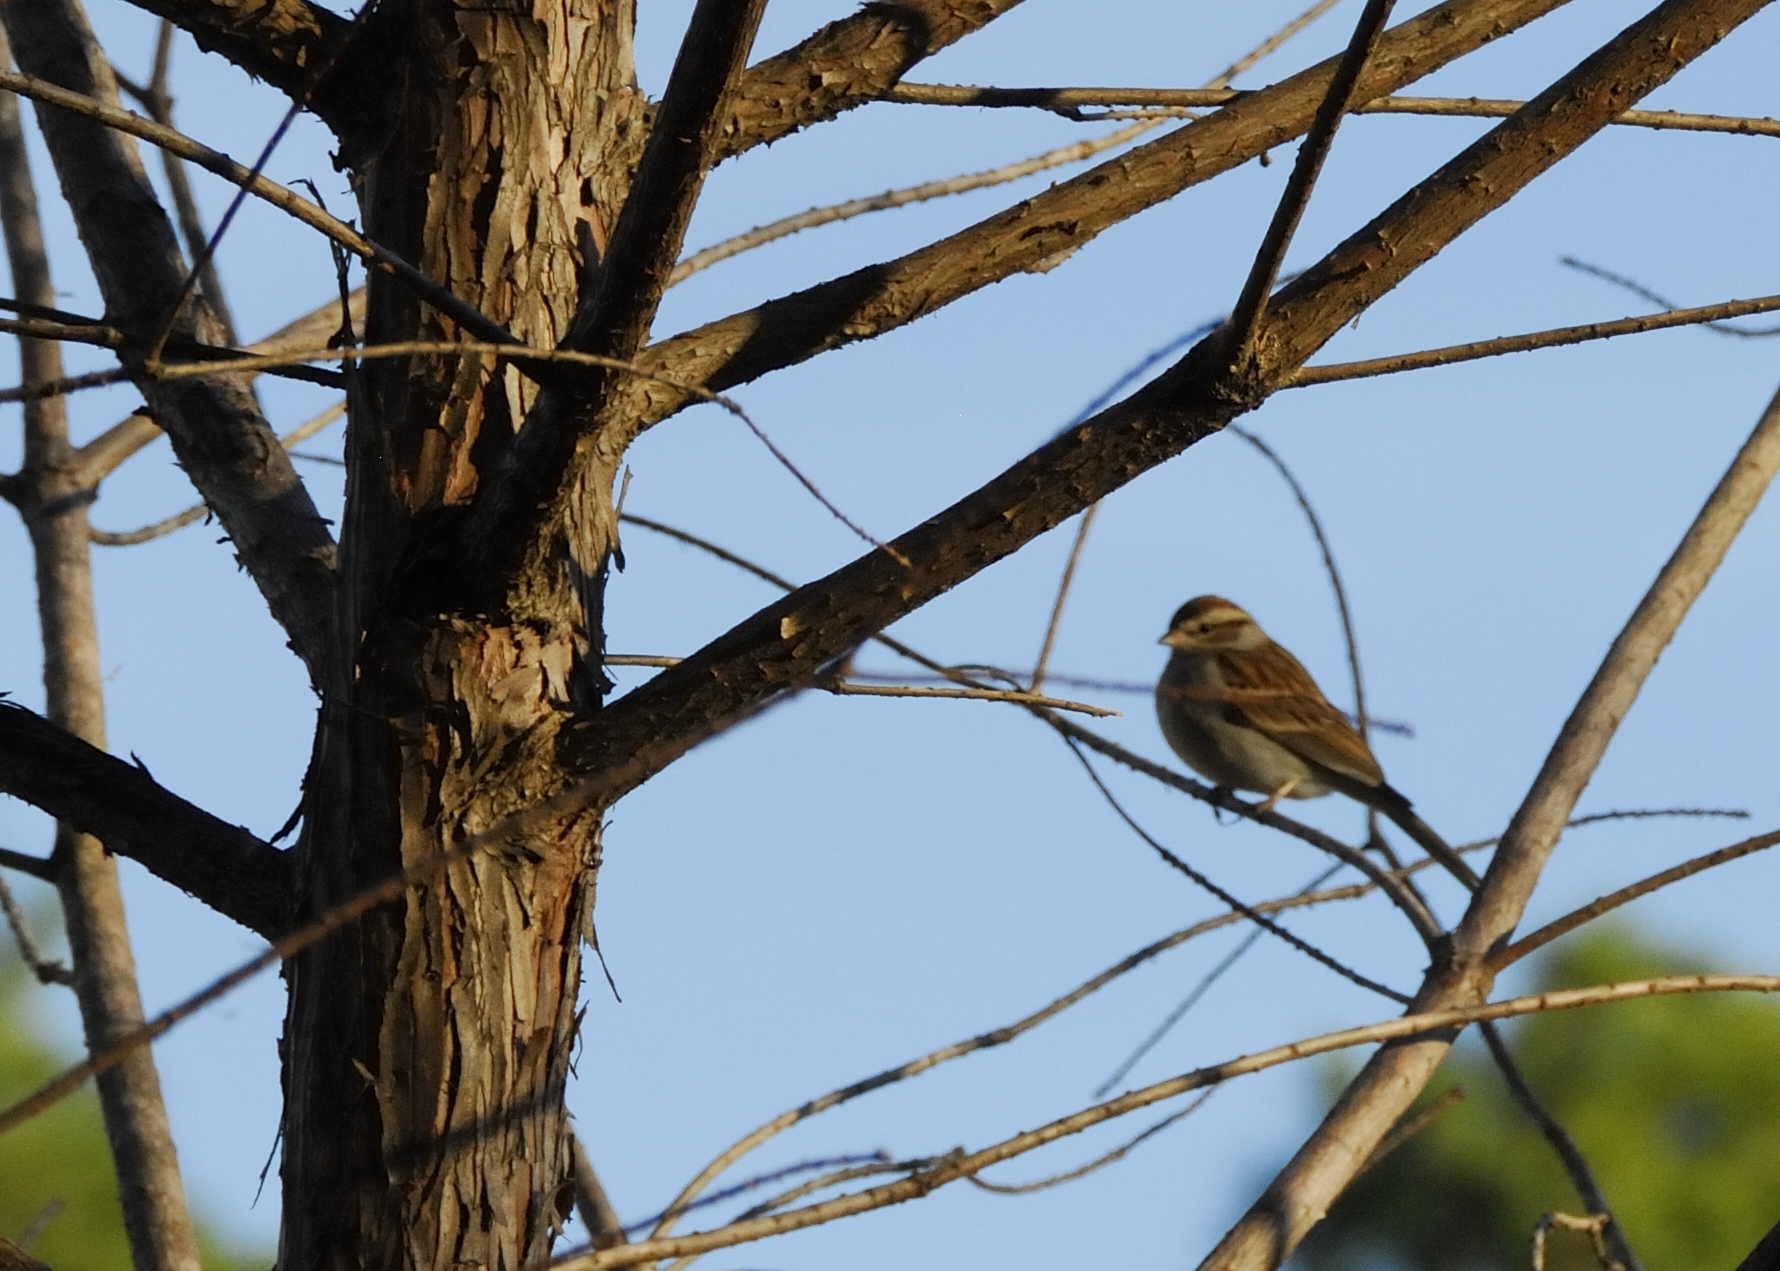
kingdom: Animalia
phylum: Chordata
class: Aves
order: Passeriformes
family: Passerellidae
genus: Spizella
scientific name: Spizella passerina
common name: Chipping sparrow
